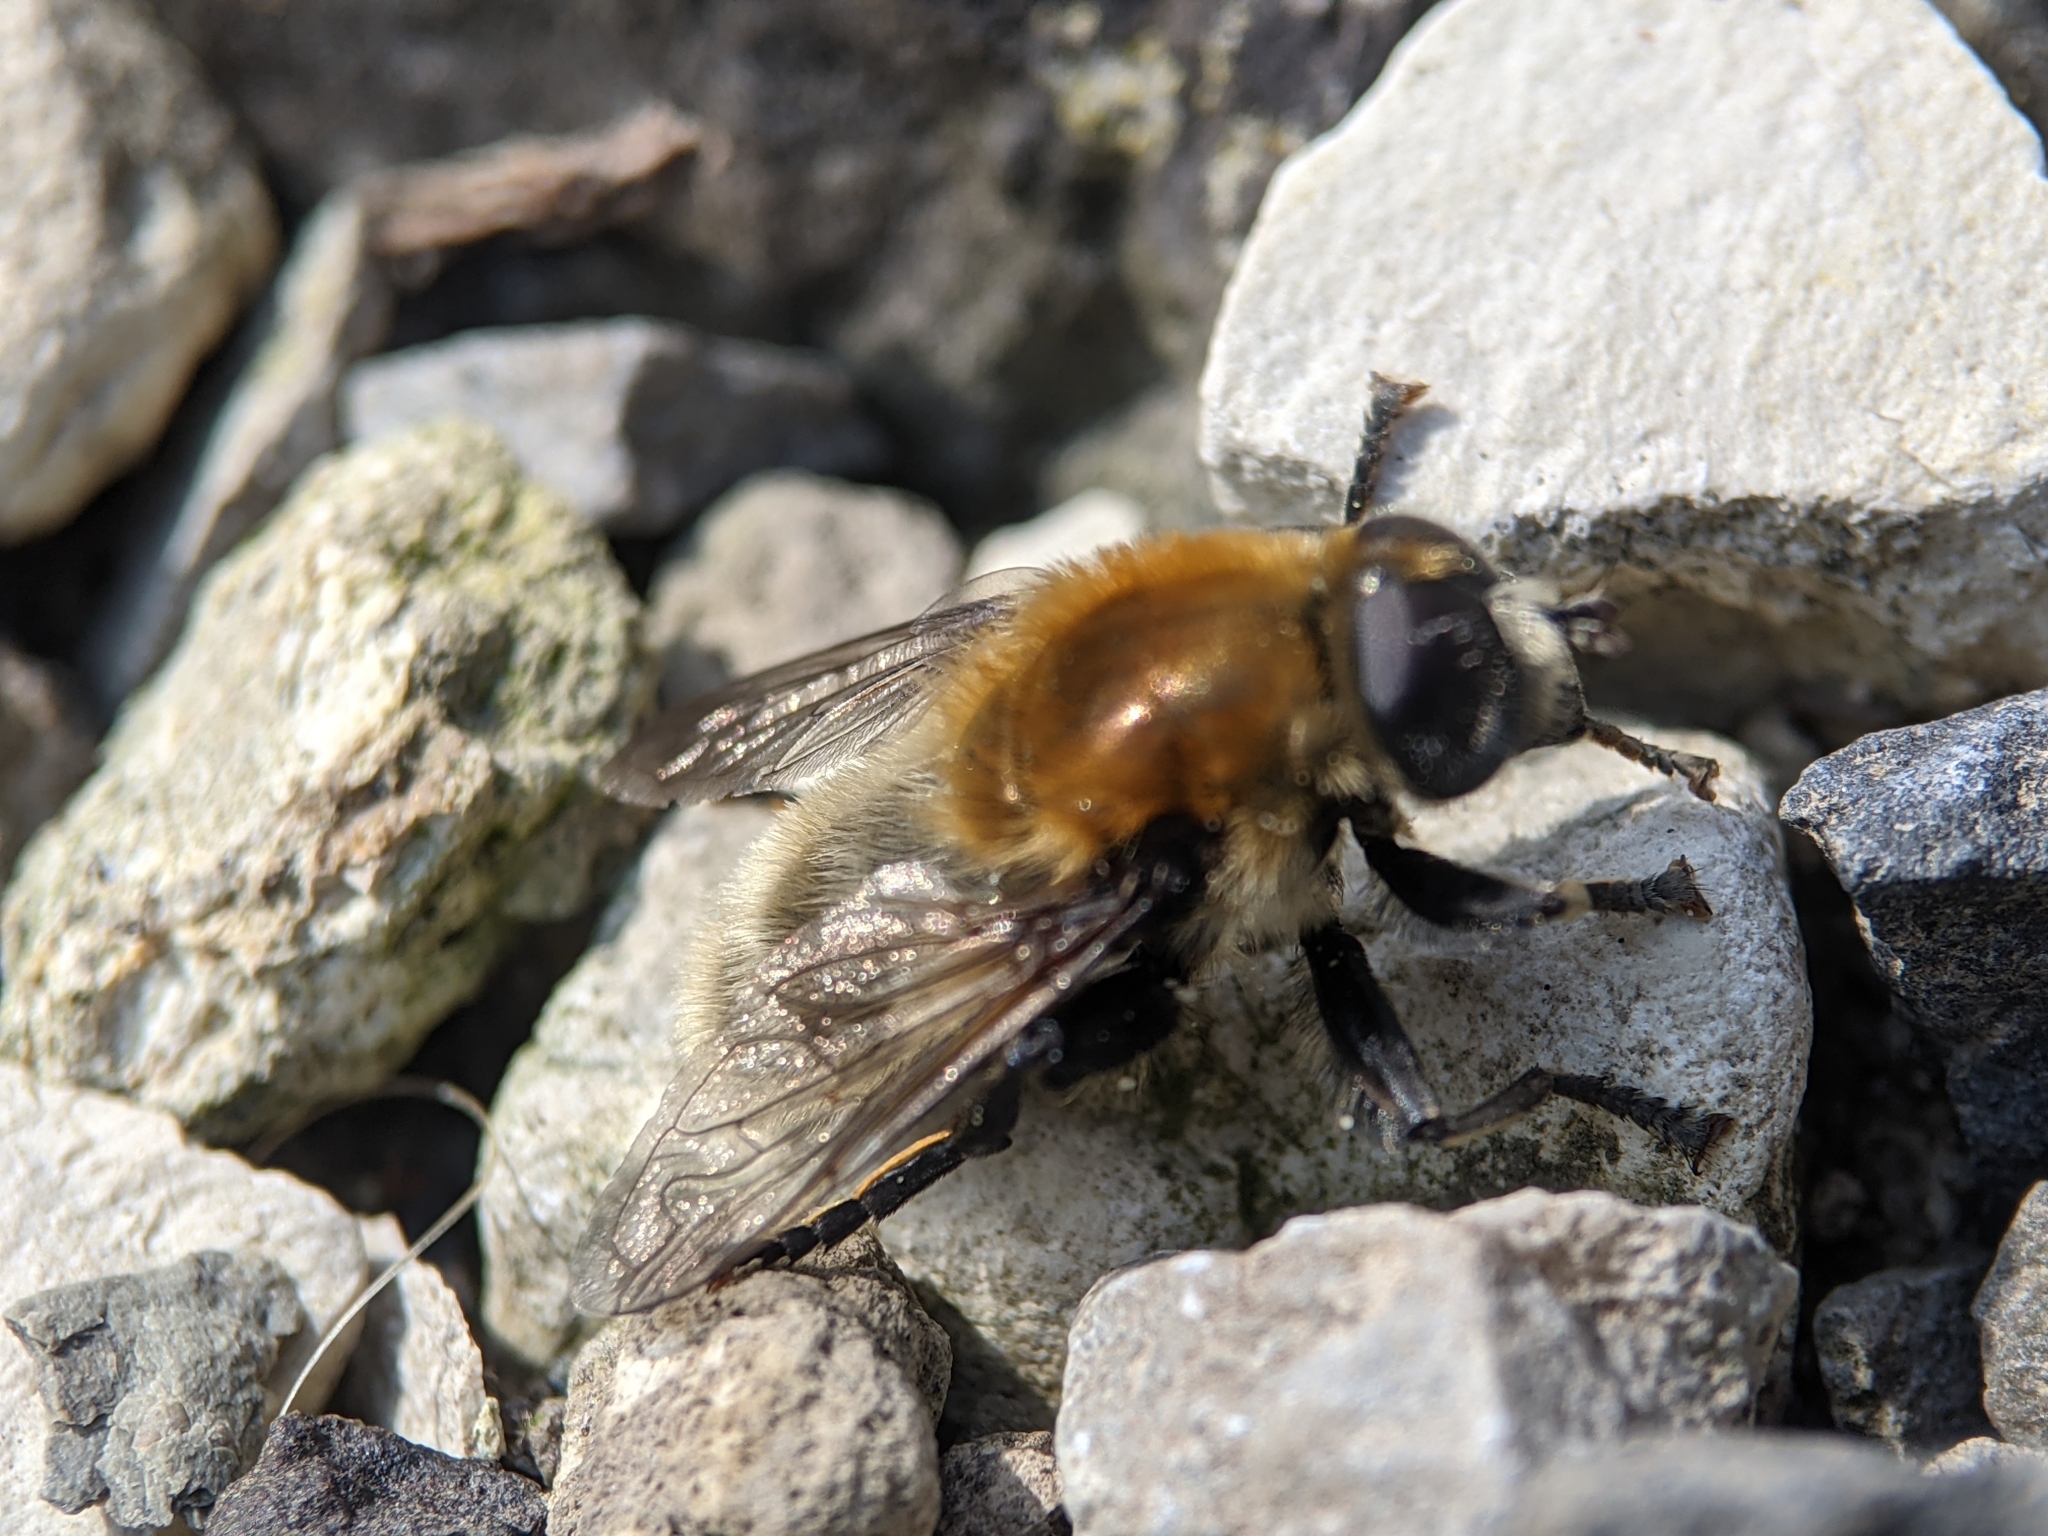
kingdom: Animalia
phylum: Arthropoda
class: Insecta
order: Diptera
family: Syrphidae
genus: Merodon
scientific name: Merodon equestris
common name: Greater bulb-fly
